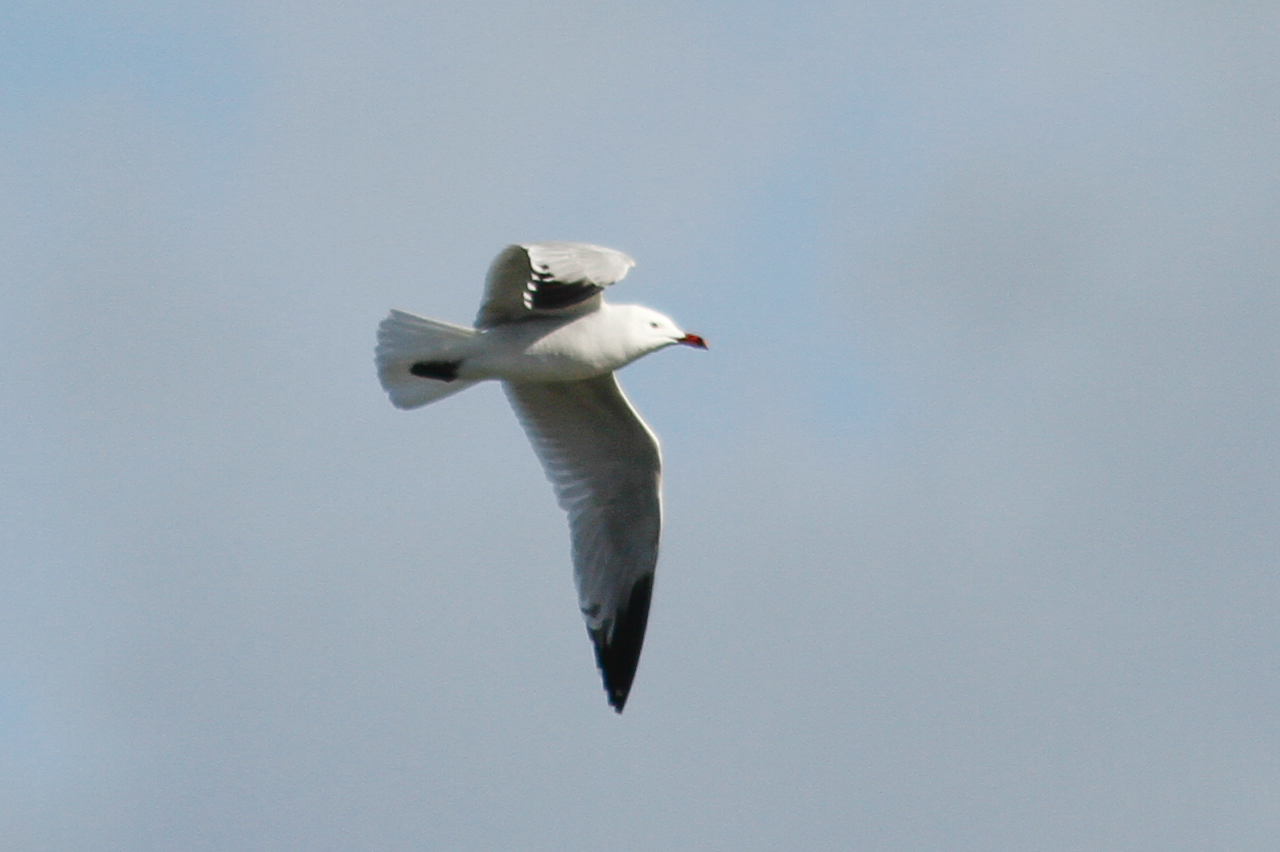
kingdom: Animalia
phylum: Chordata
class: Aves
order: Charadriiformes
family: Laridae
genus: Ichthyaetus
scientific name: Ichthyaetus audouinii
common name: Audouin's gull
